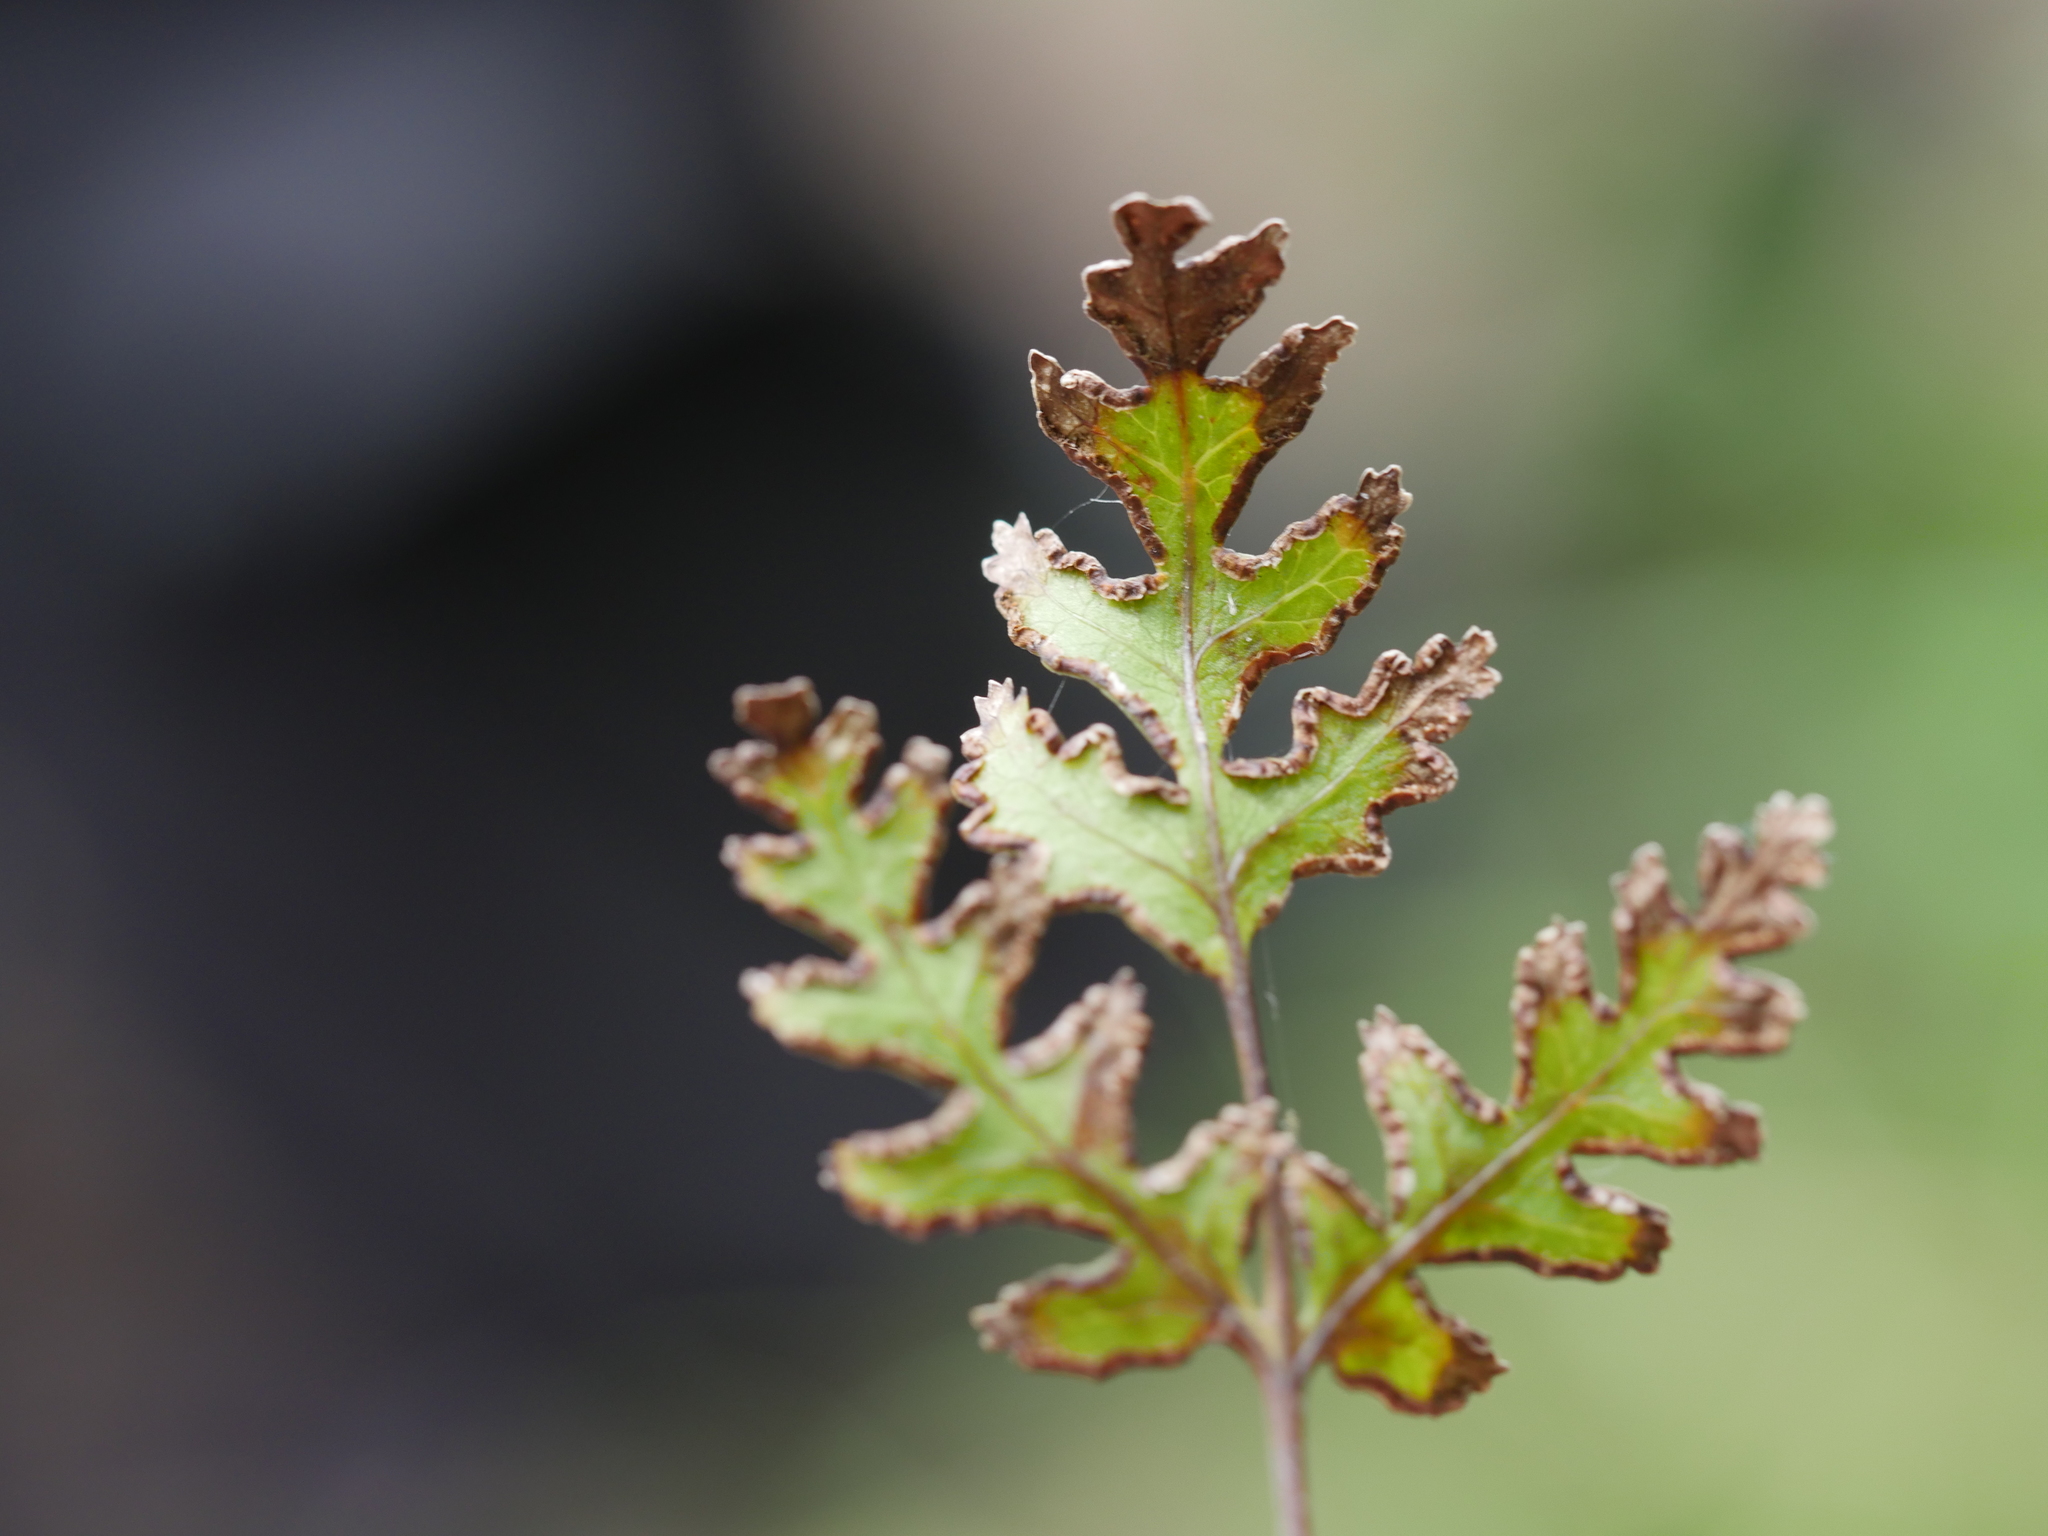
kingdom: Plantae
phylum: Tracheophyta
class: Polypodiopsida
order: Polypodiales
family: Pteridaceae
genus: Pteris
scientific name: Pteris macilenta
